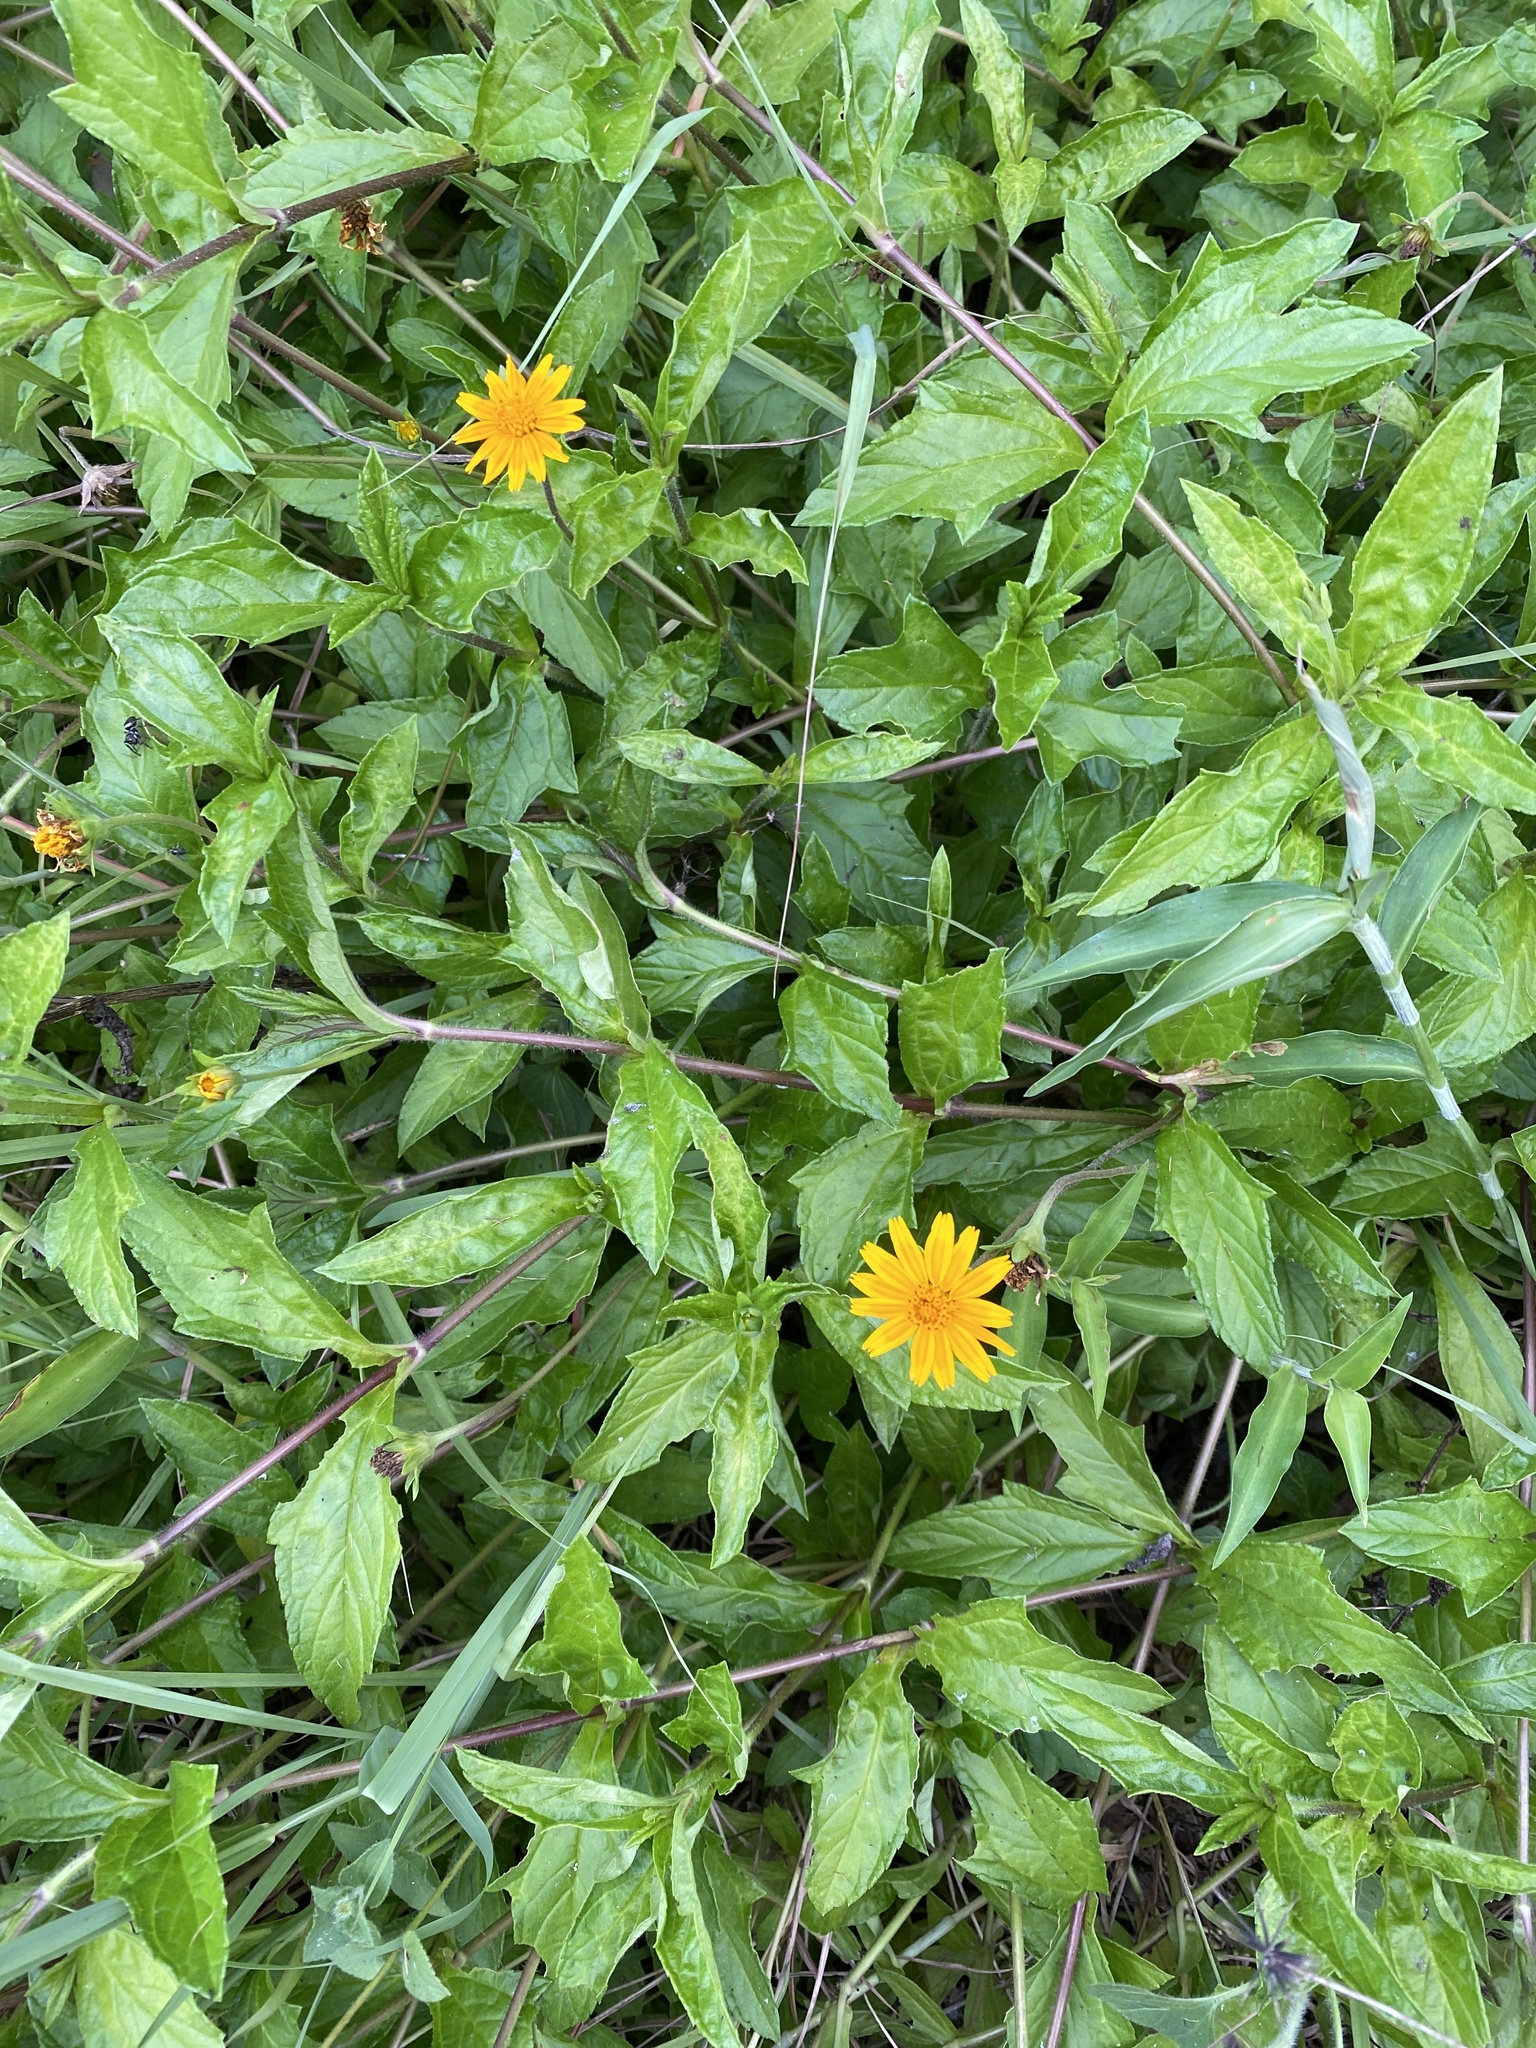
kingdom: Plantae
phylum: Tracheophyta
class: Magnoliopsida
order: Asterales
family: Asteraceae
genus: Sphagneticola
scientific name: Sphagneticola trilobata
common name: Bay biscayne creeping-oxeye
